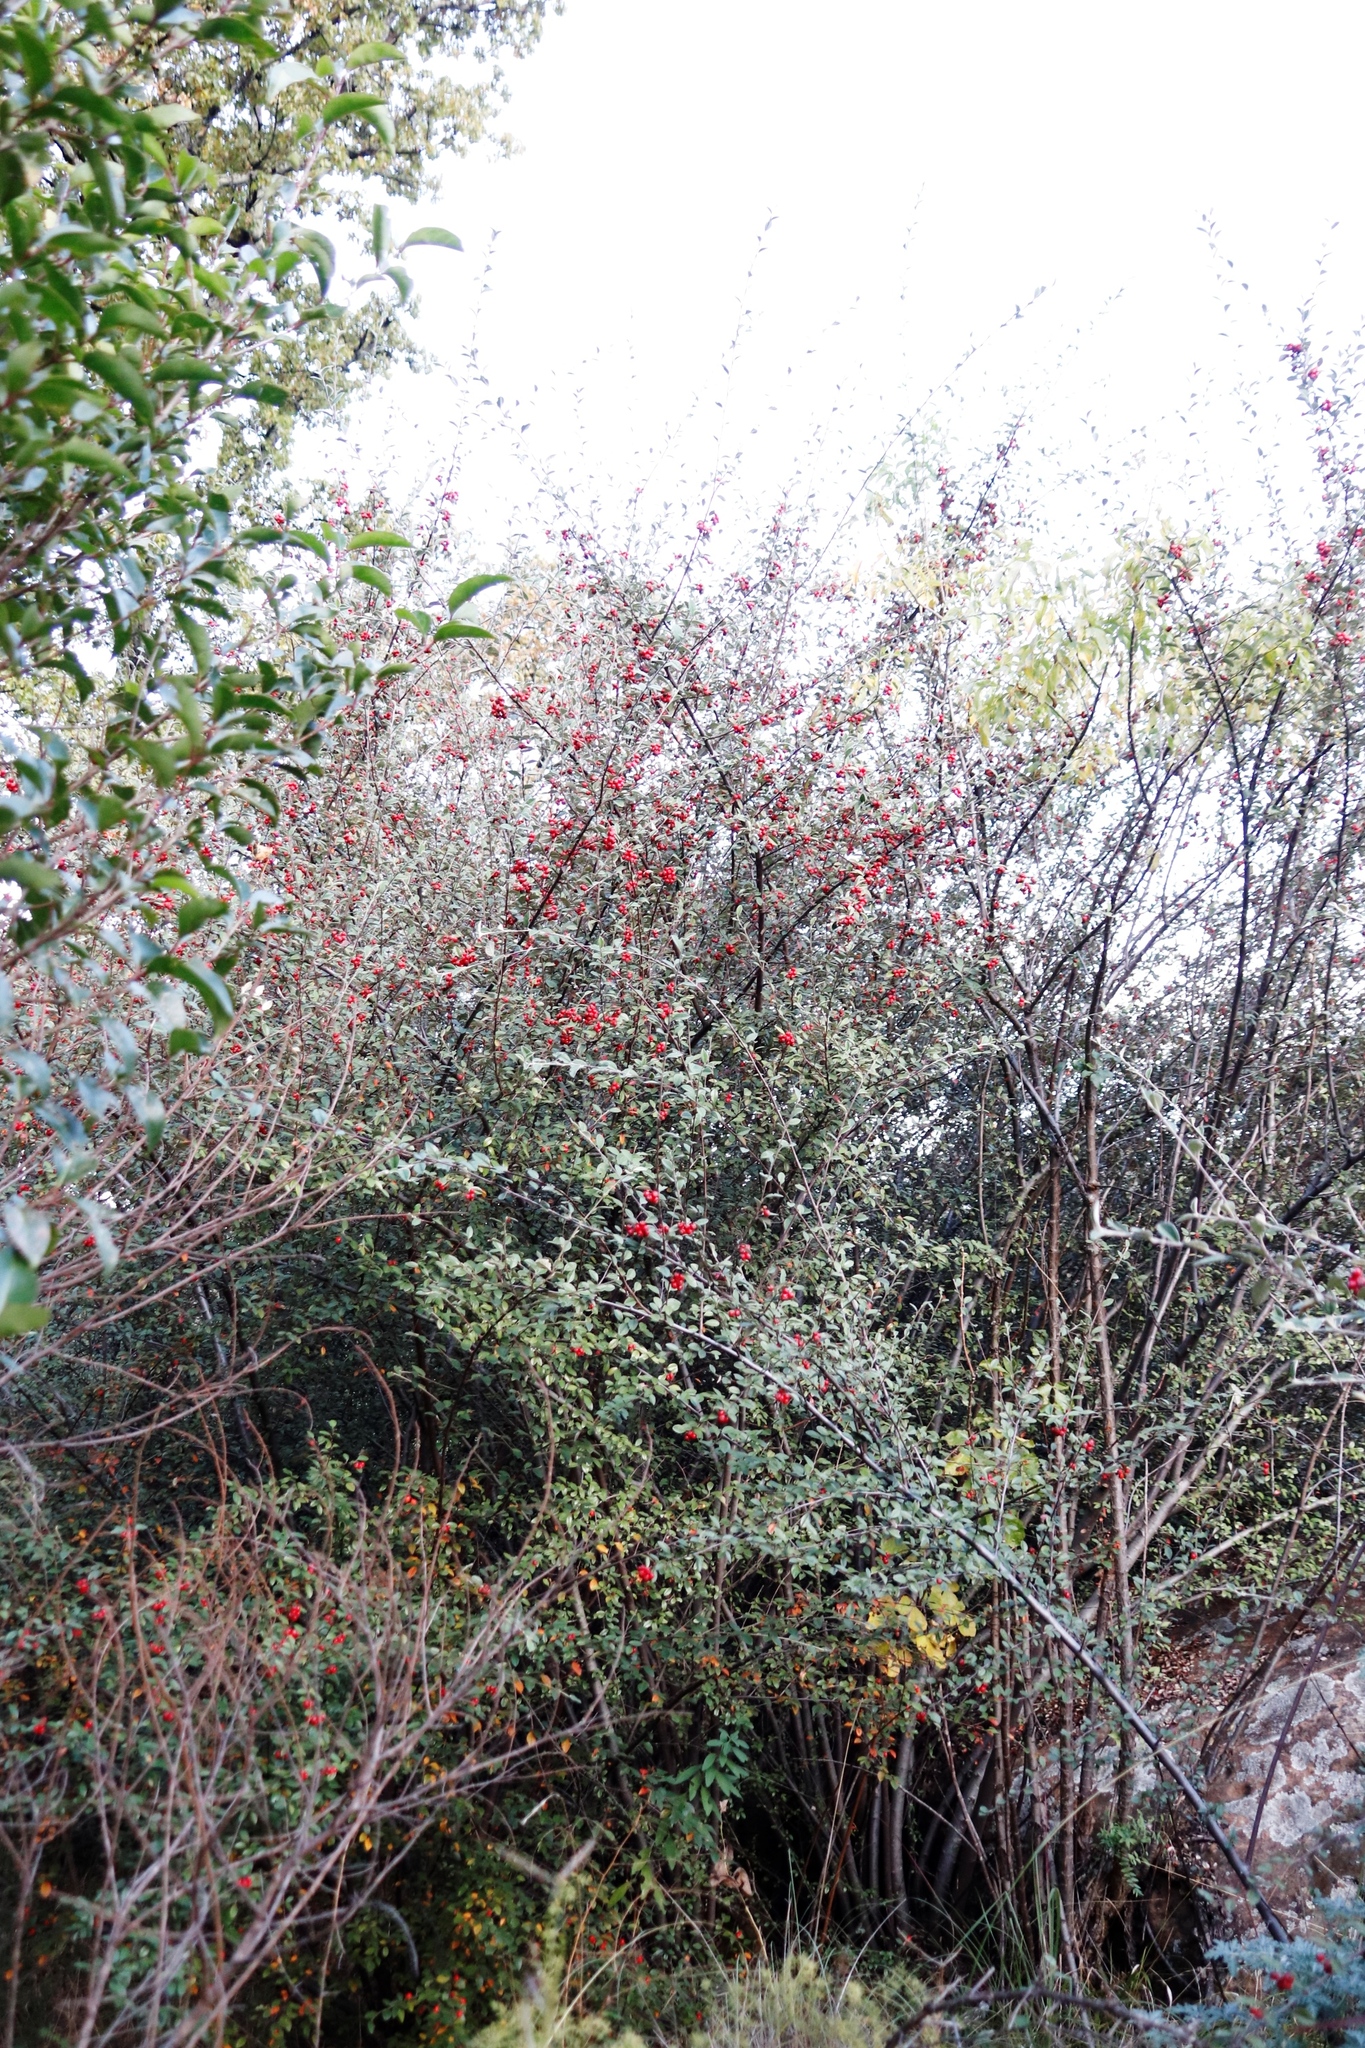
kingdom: Plantae
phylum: Tracheophyta
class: Magnoliopsida
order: Rosales
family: Rosaceae
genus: Cotoneaster
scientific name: Cotoneaster pannosus
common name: Silverleaf cotoneaster
